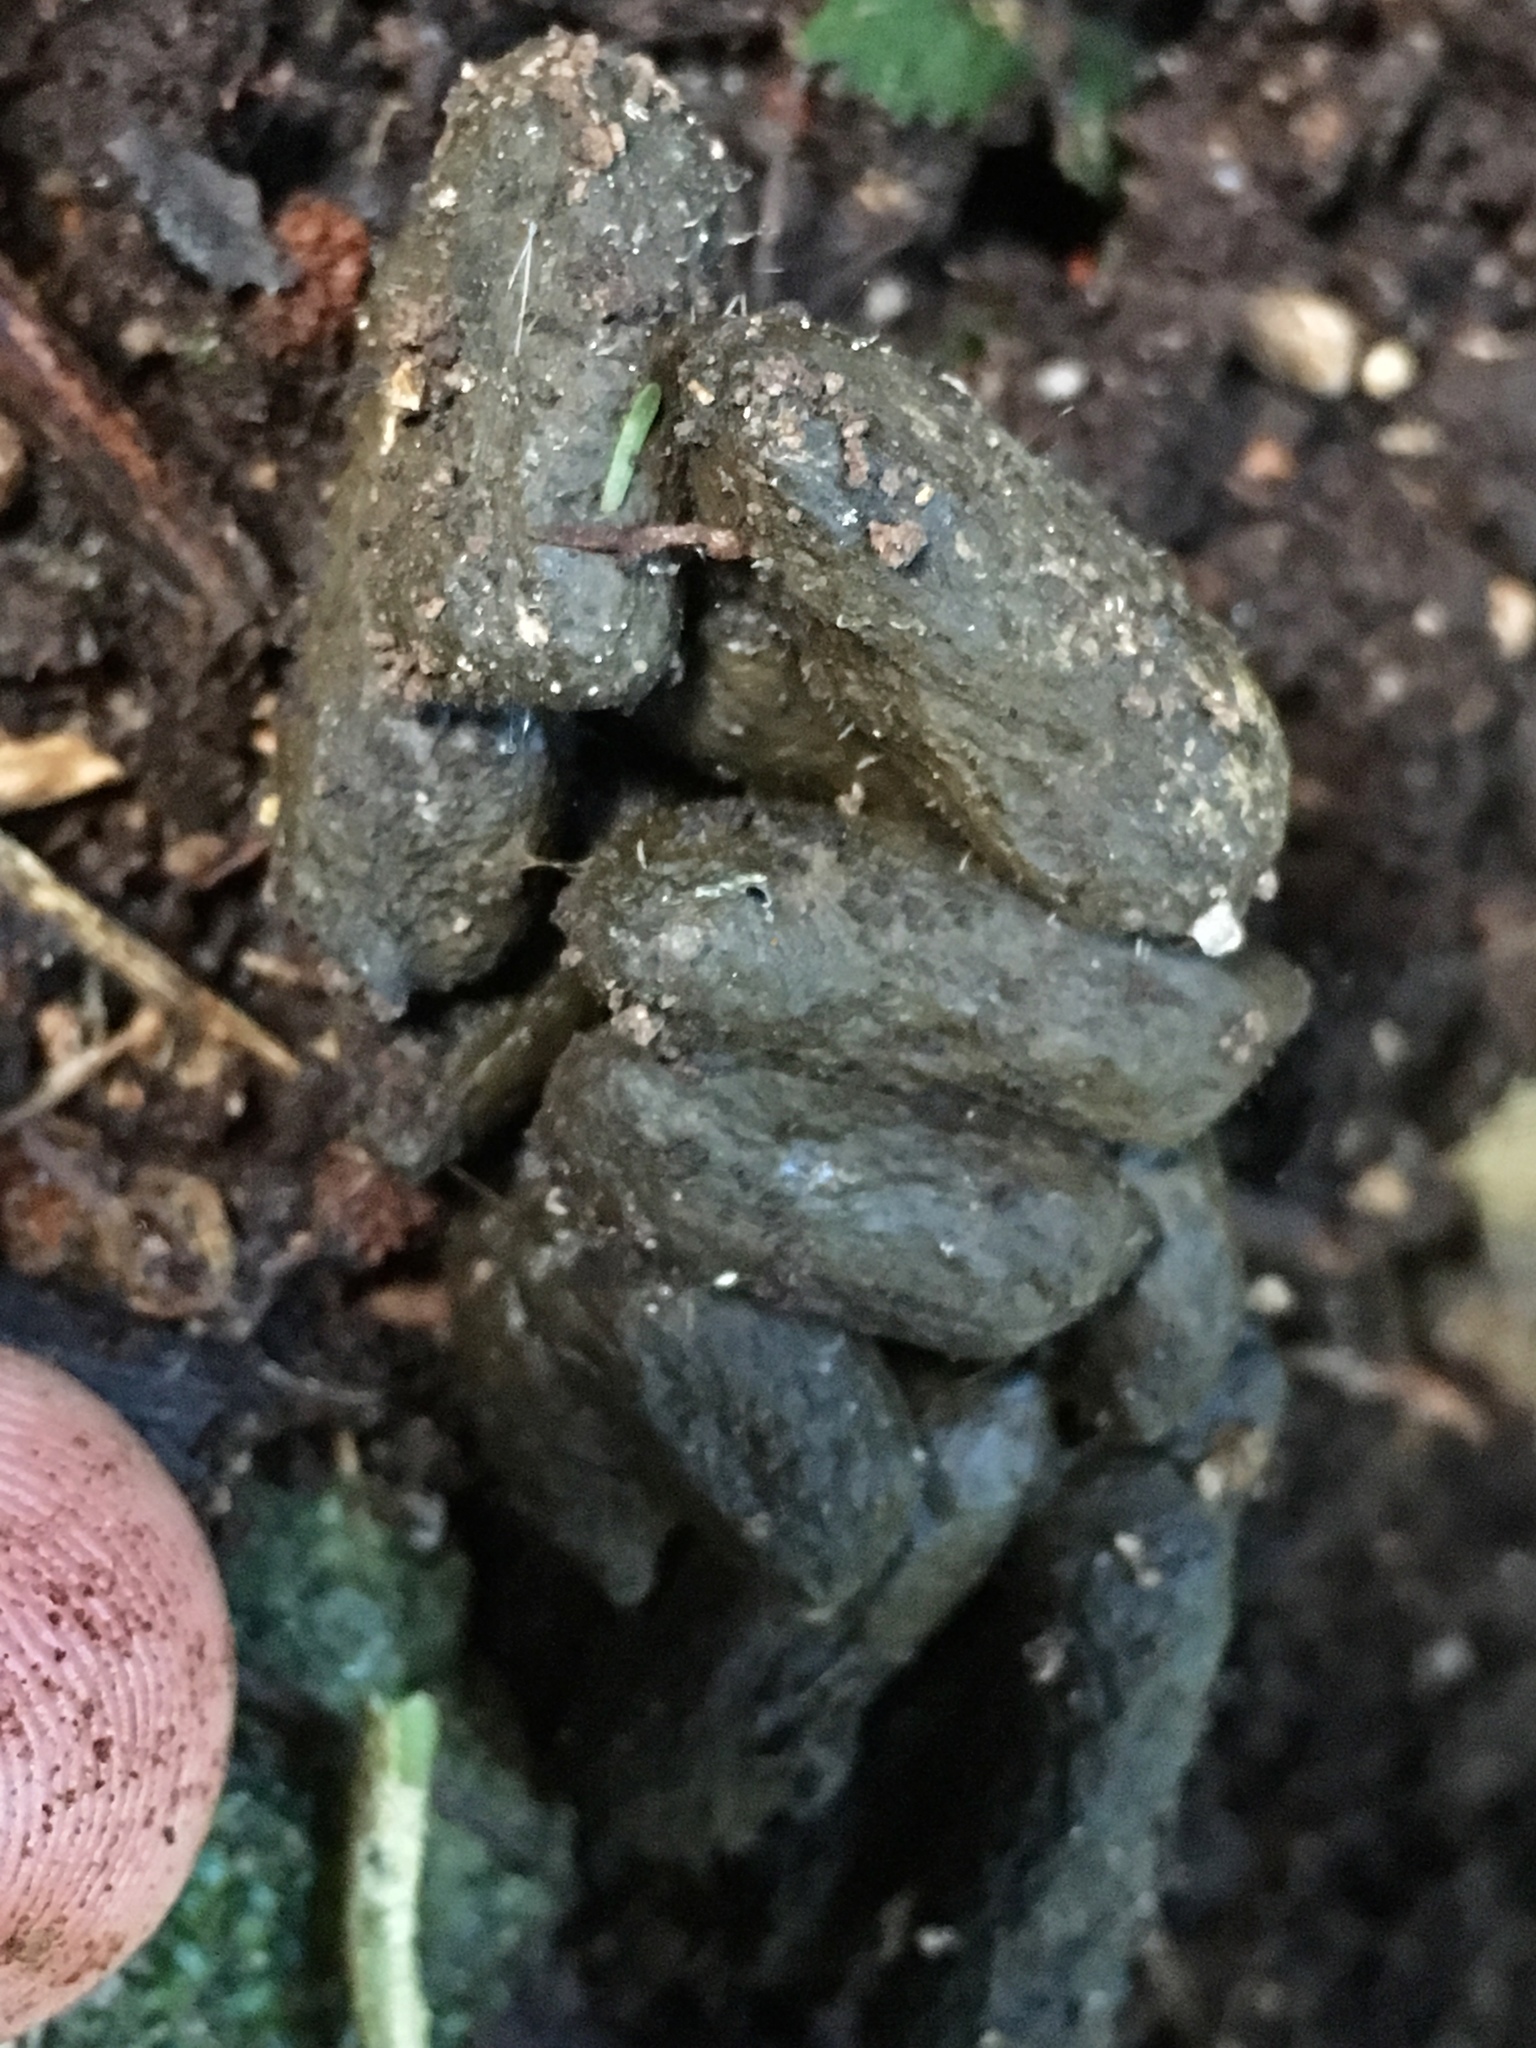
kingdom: Animalia
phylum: Chordata
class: Mammalia
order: Diprotodontia
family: Phalangeridae
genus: Trichosurus
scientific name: Trichosurus vulpecula
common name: Common brushtail
